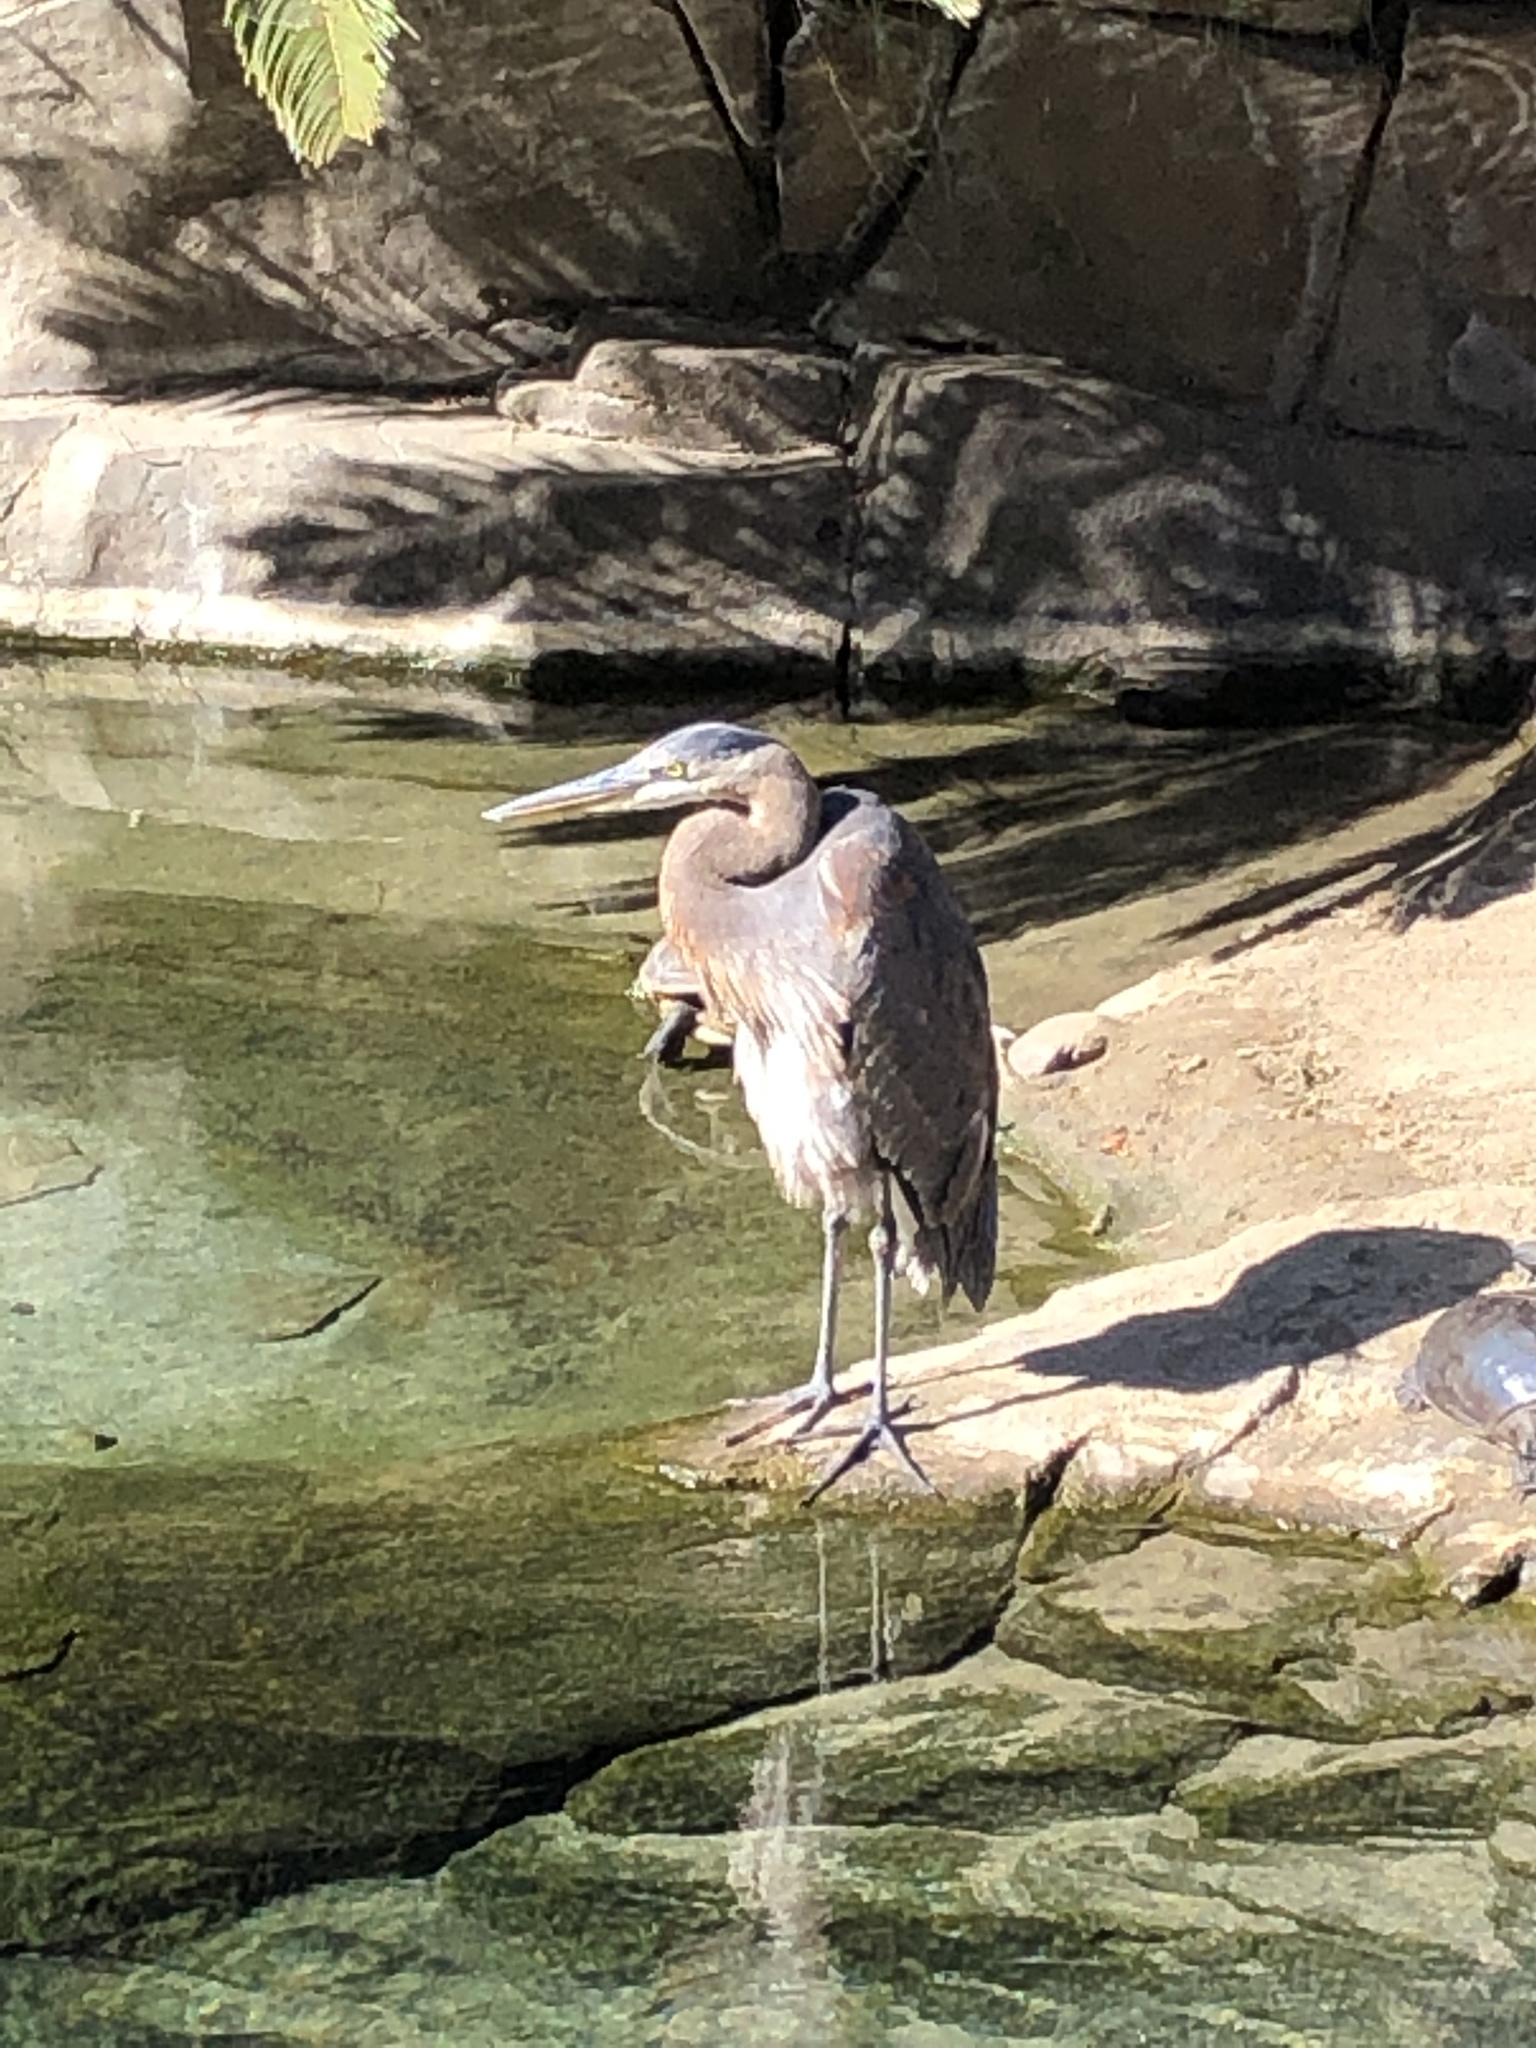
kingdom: Animalia
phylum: Chordata
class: Aves
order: Pelecaniformes
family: Ardeidae
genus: Ardea
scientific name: Ardea herodias
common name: Great blue heron
